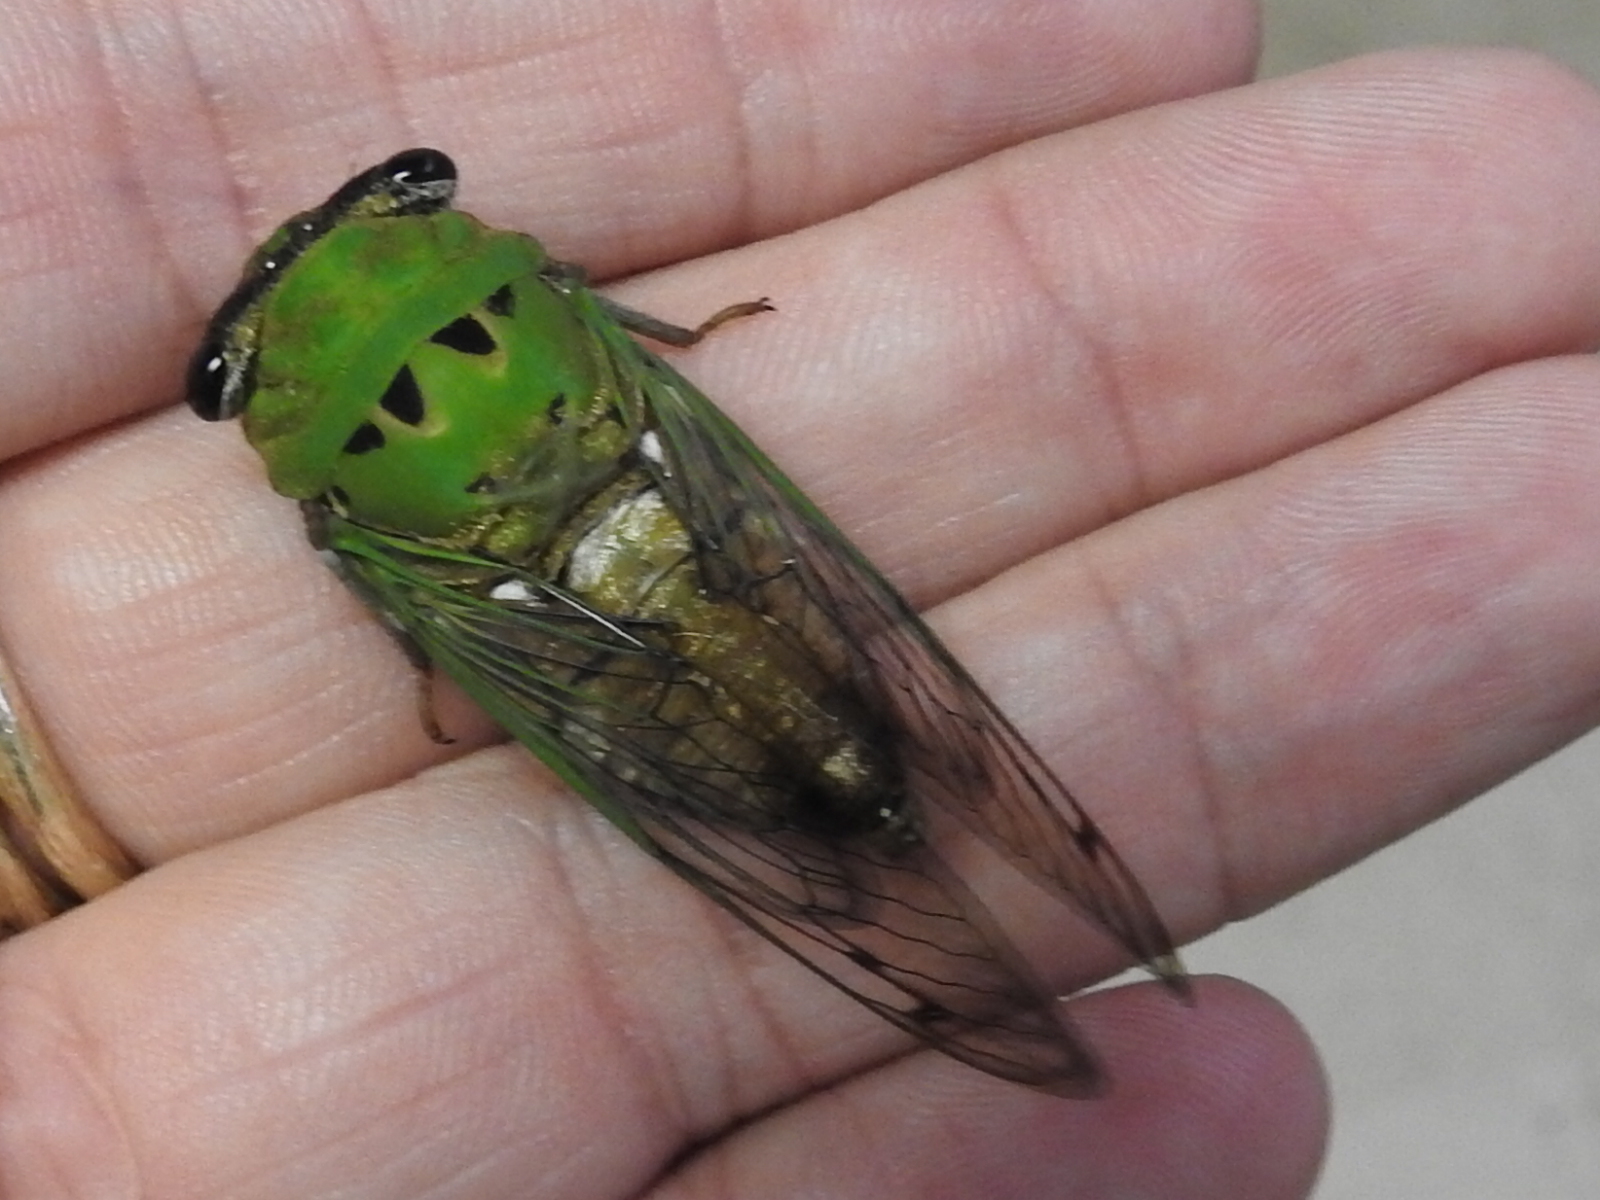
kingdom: Animalia
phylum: Arthropoda
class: Insecta
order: Hemiptera
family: Cicadidae
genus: Neotibicen
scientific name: Neotibicen superbus
